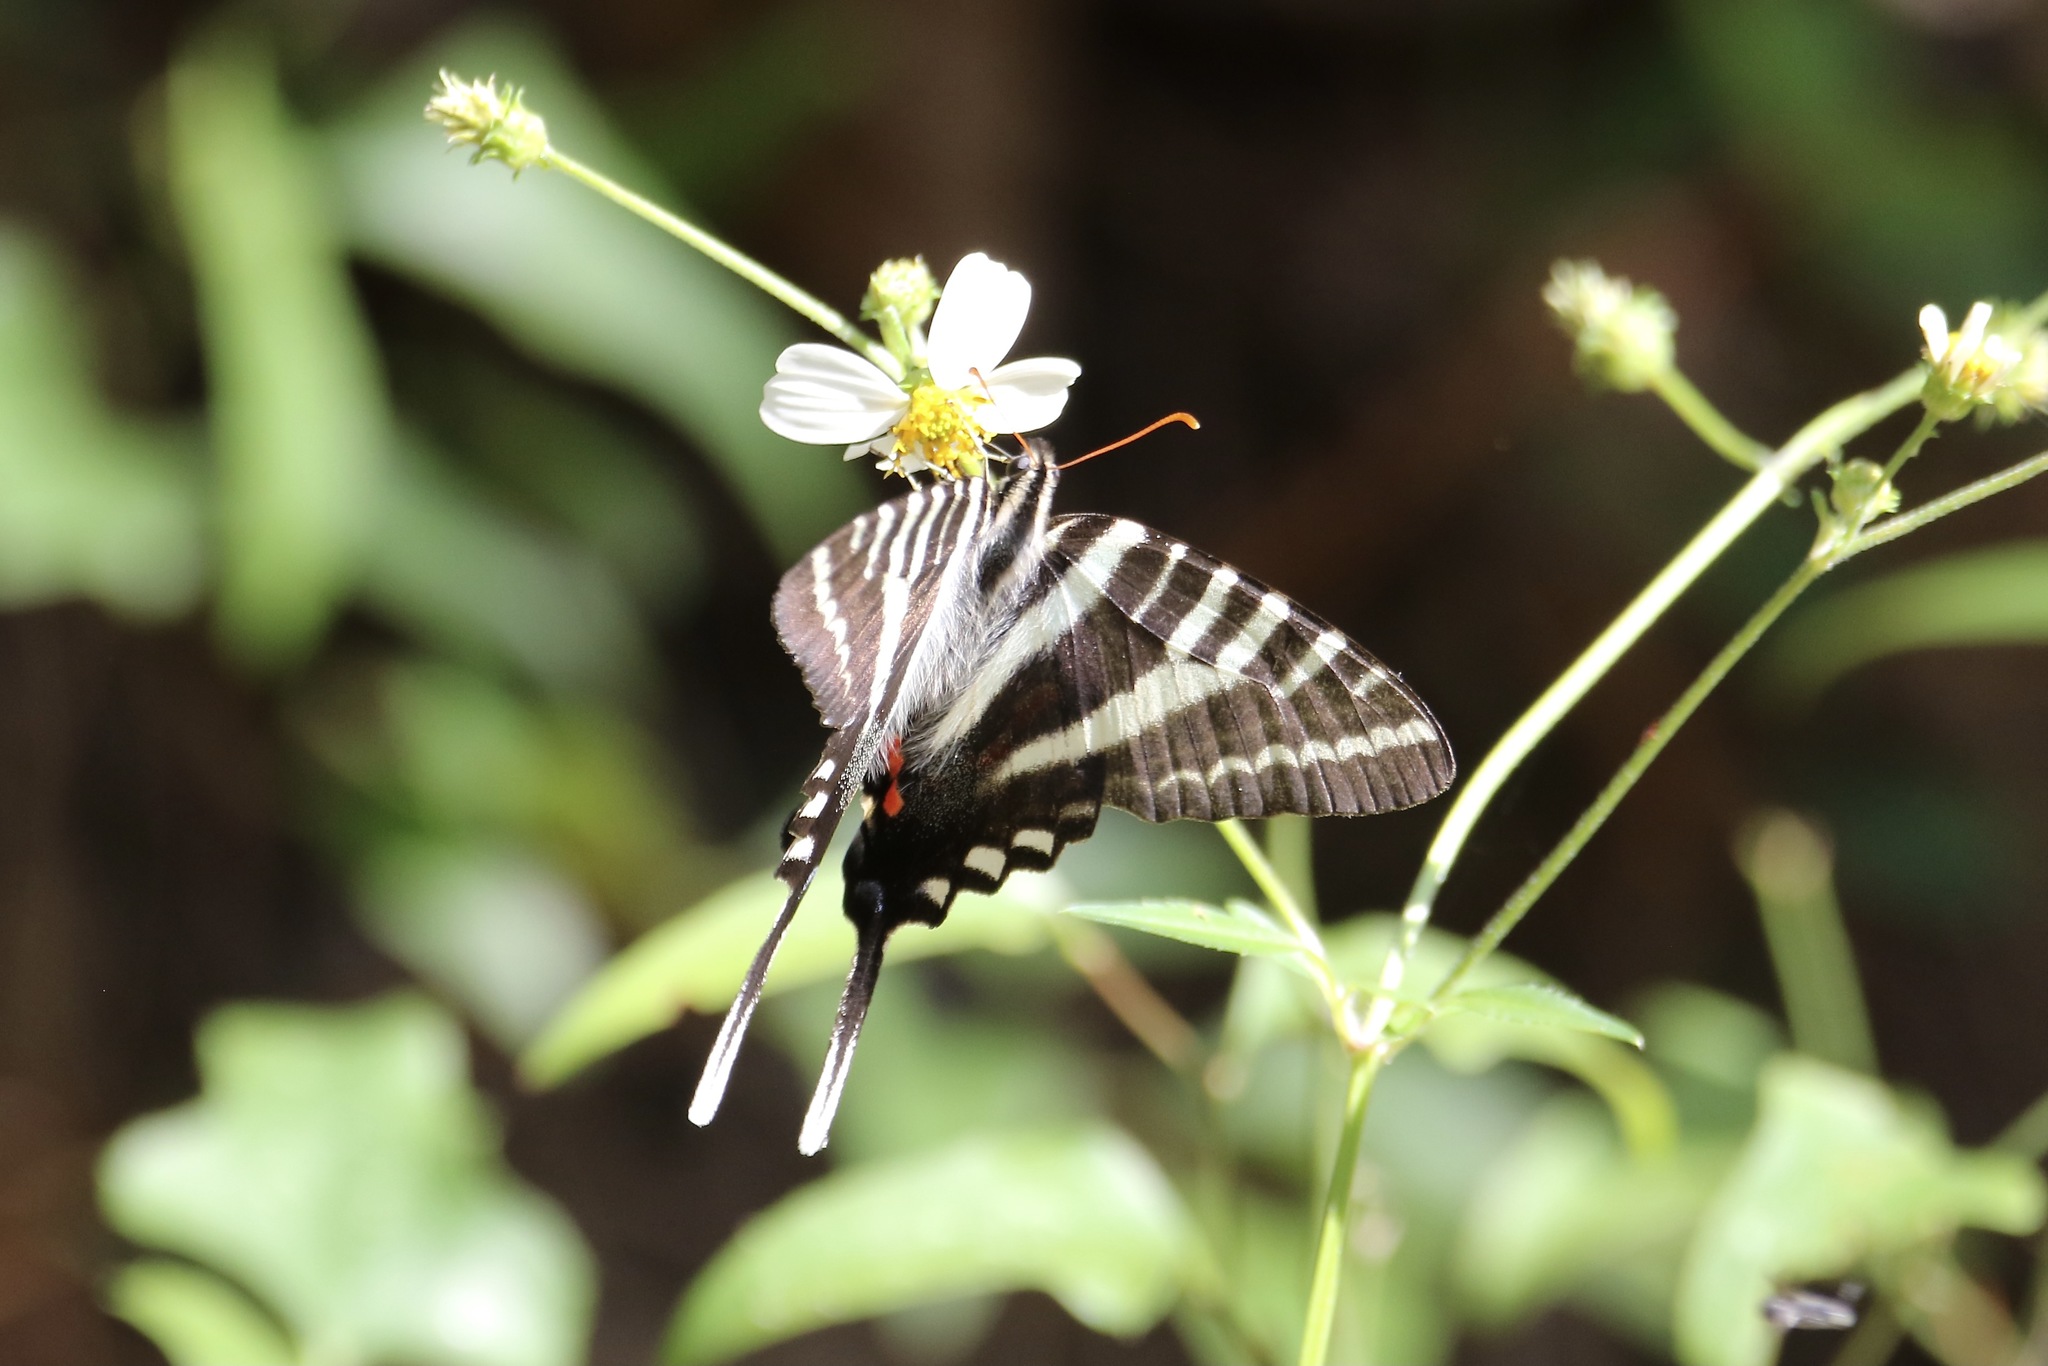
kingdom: Animalia
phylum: Arthropoda
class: Insecta
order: Lepidoptera
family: Papilionidae
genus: Protographium
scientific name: Protographium marcellus
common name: Zebra swallowtail
